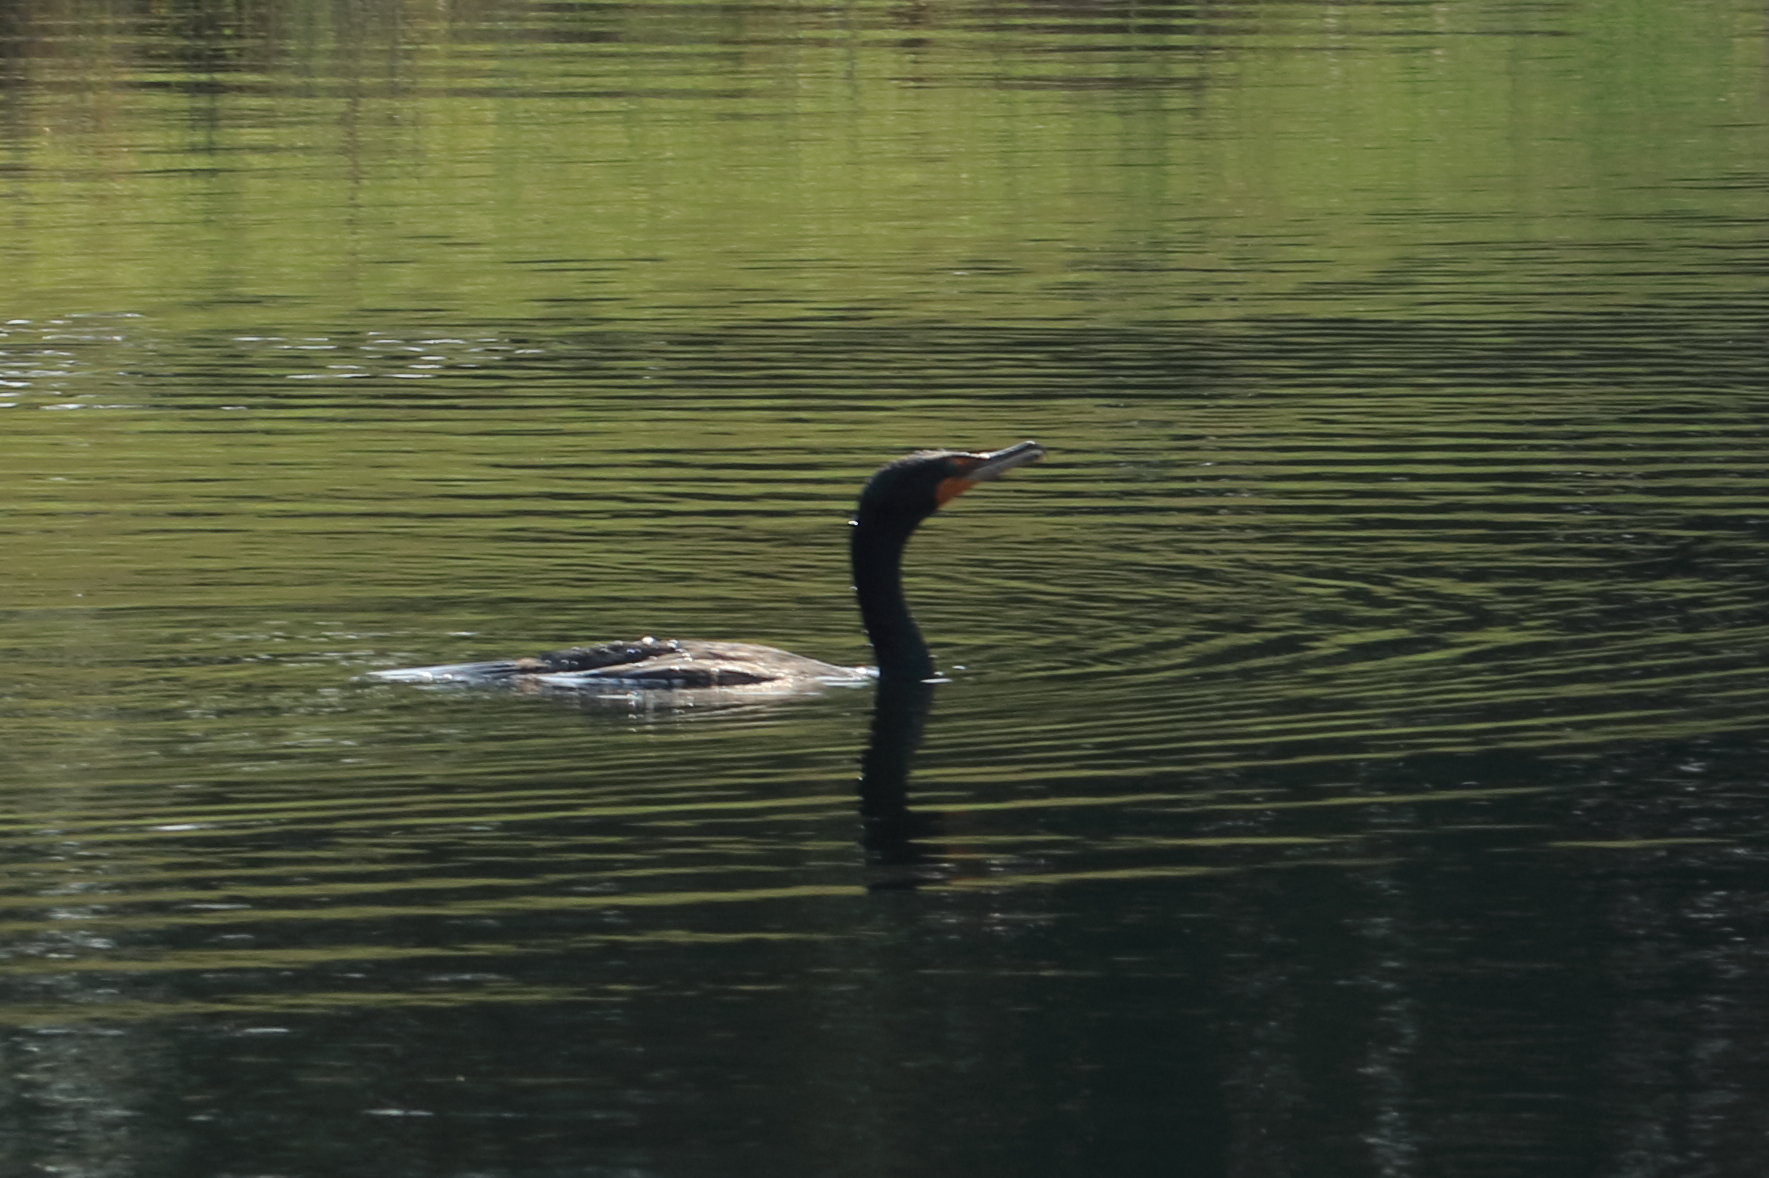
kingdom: Animalia
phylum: Chordata
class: Aves
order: Suliformes
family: Phalacrocoracidae
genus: Phalacrocorax
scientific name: Phalacrocorax auritus
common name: Double-crested cormorant
